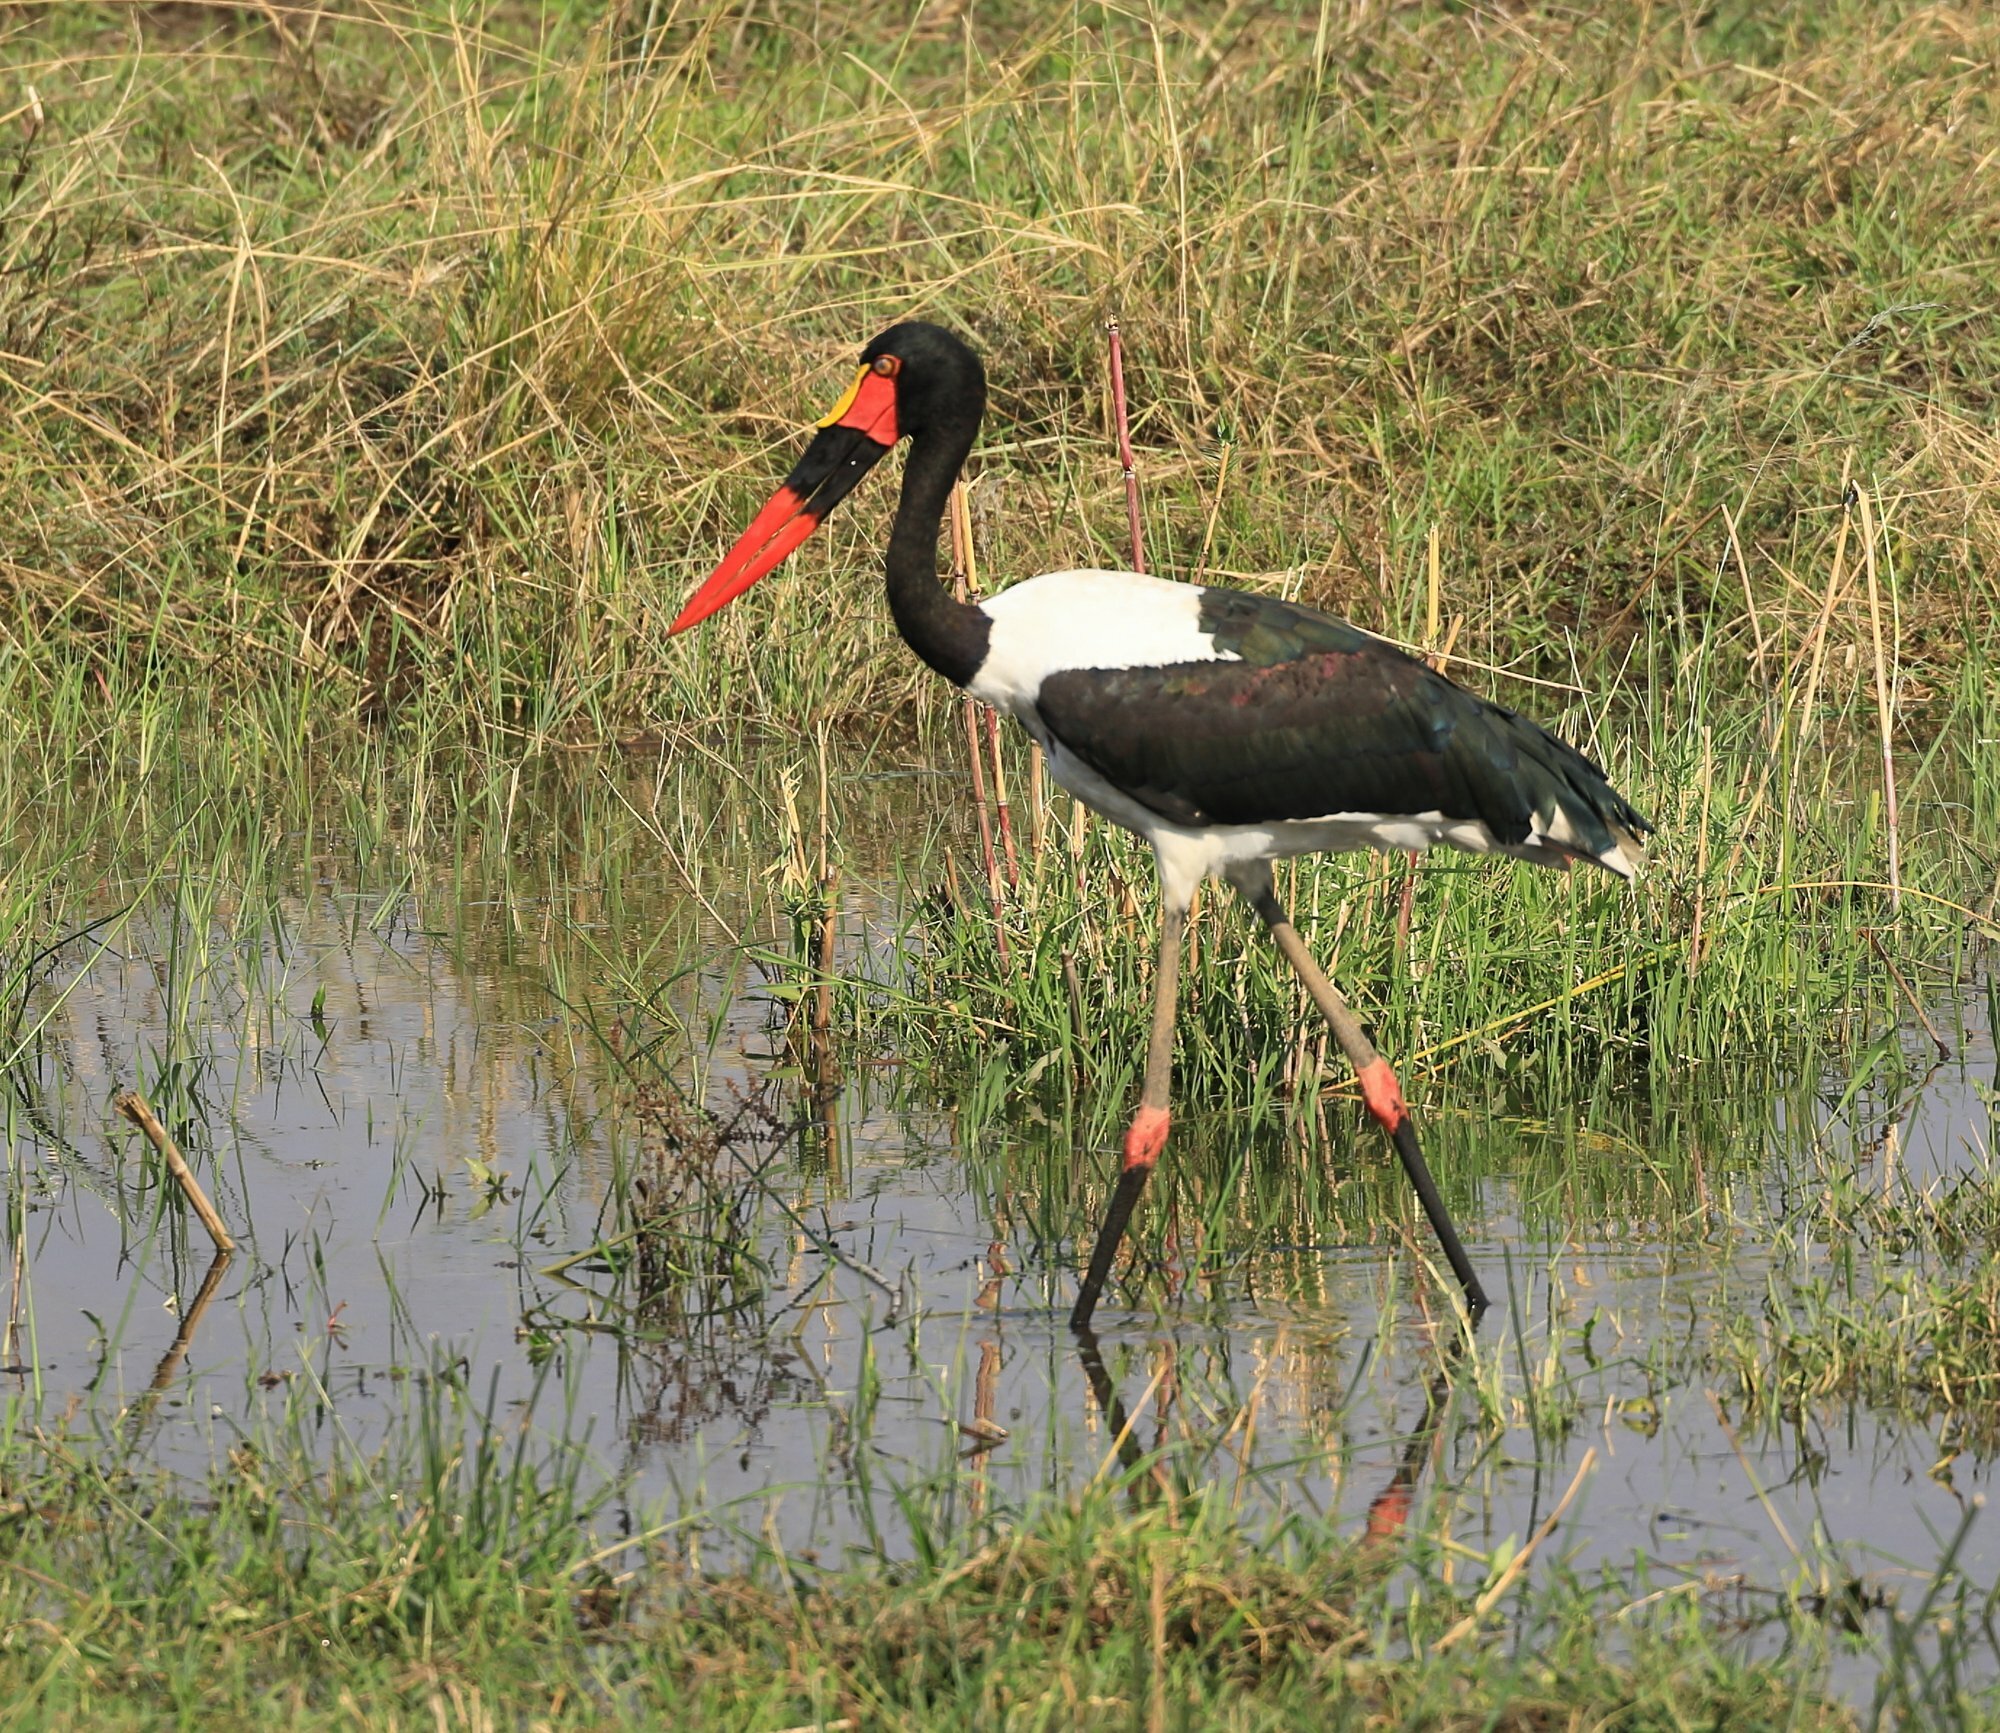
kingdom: Animalia
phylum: Chordata
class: Aves
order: Ciconiiformes
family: Ciconiidae
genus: Ephippiorhynchus
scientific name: Ephippiorhynchus senegalensis
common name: Saddle-billed stork
